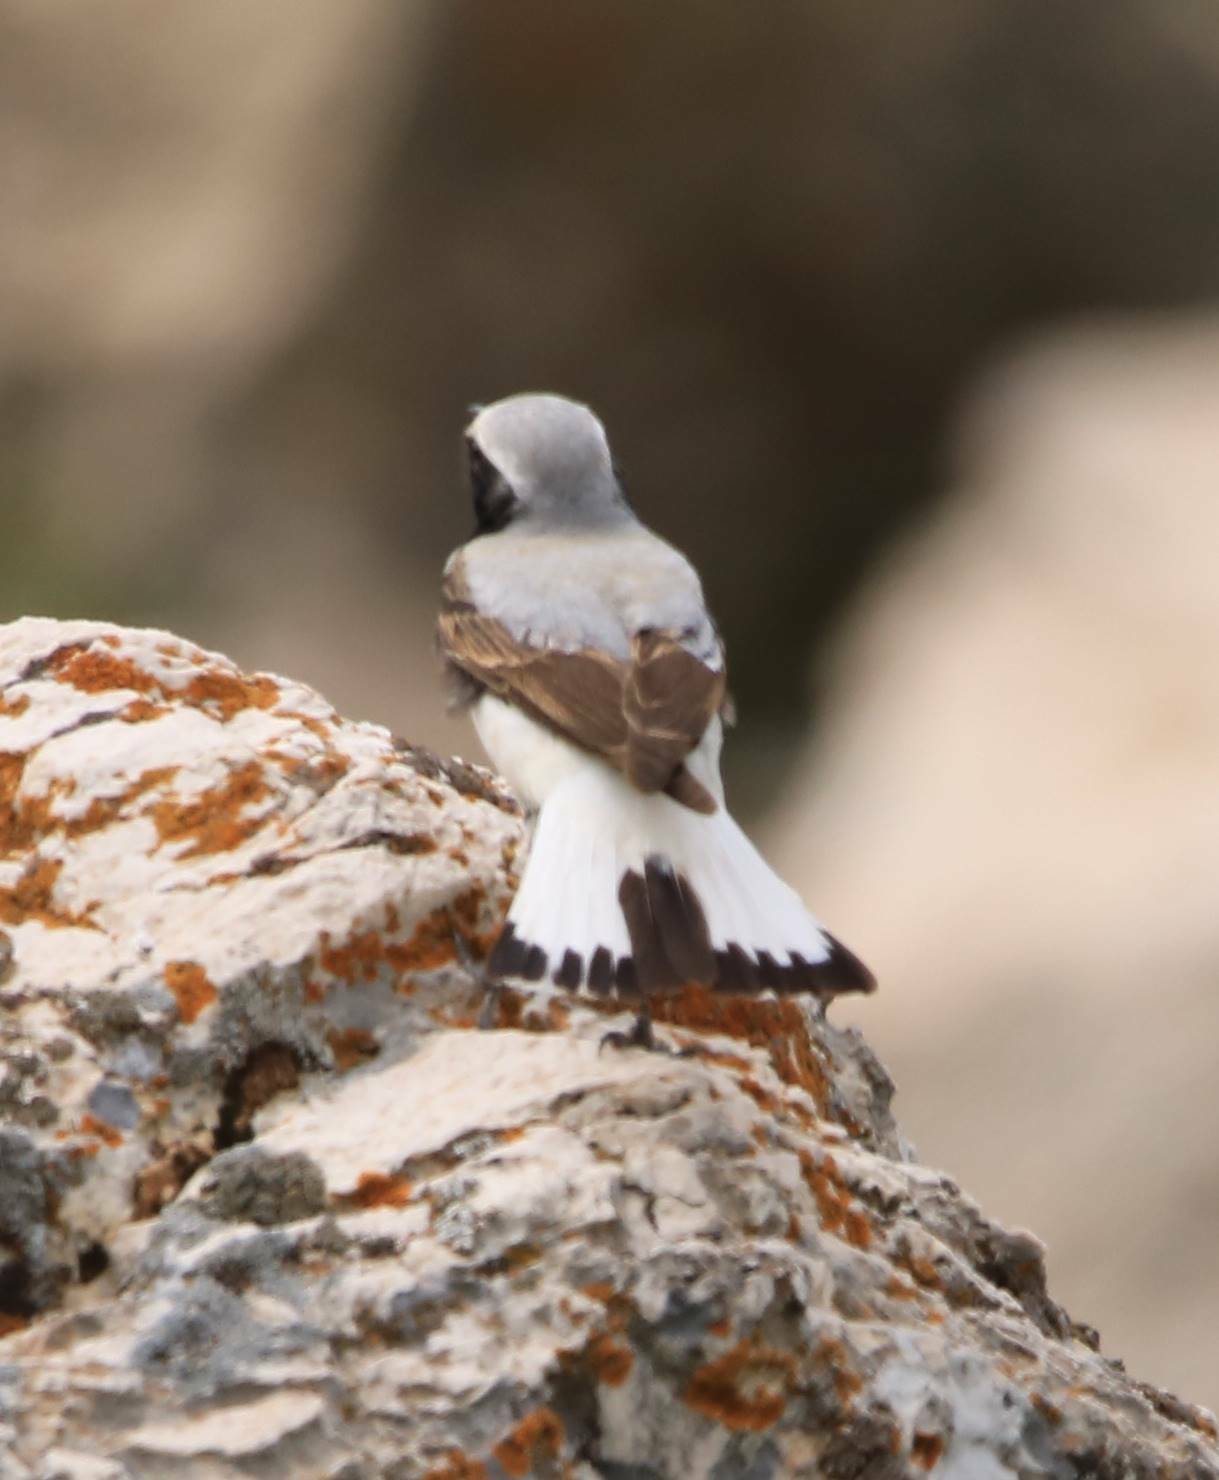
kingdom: Animalia
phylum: Chordata
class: Aves
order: Passeriformes
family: Muscicapidae
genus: Oenanthe
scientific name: Oenanthe oenanthe
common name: Northern wheatear
